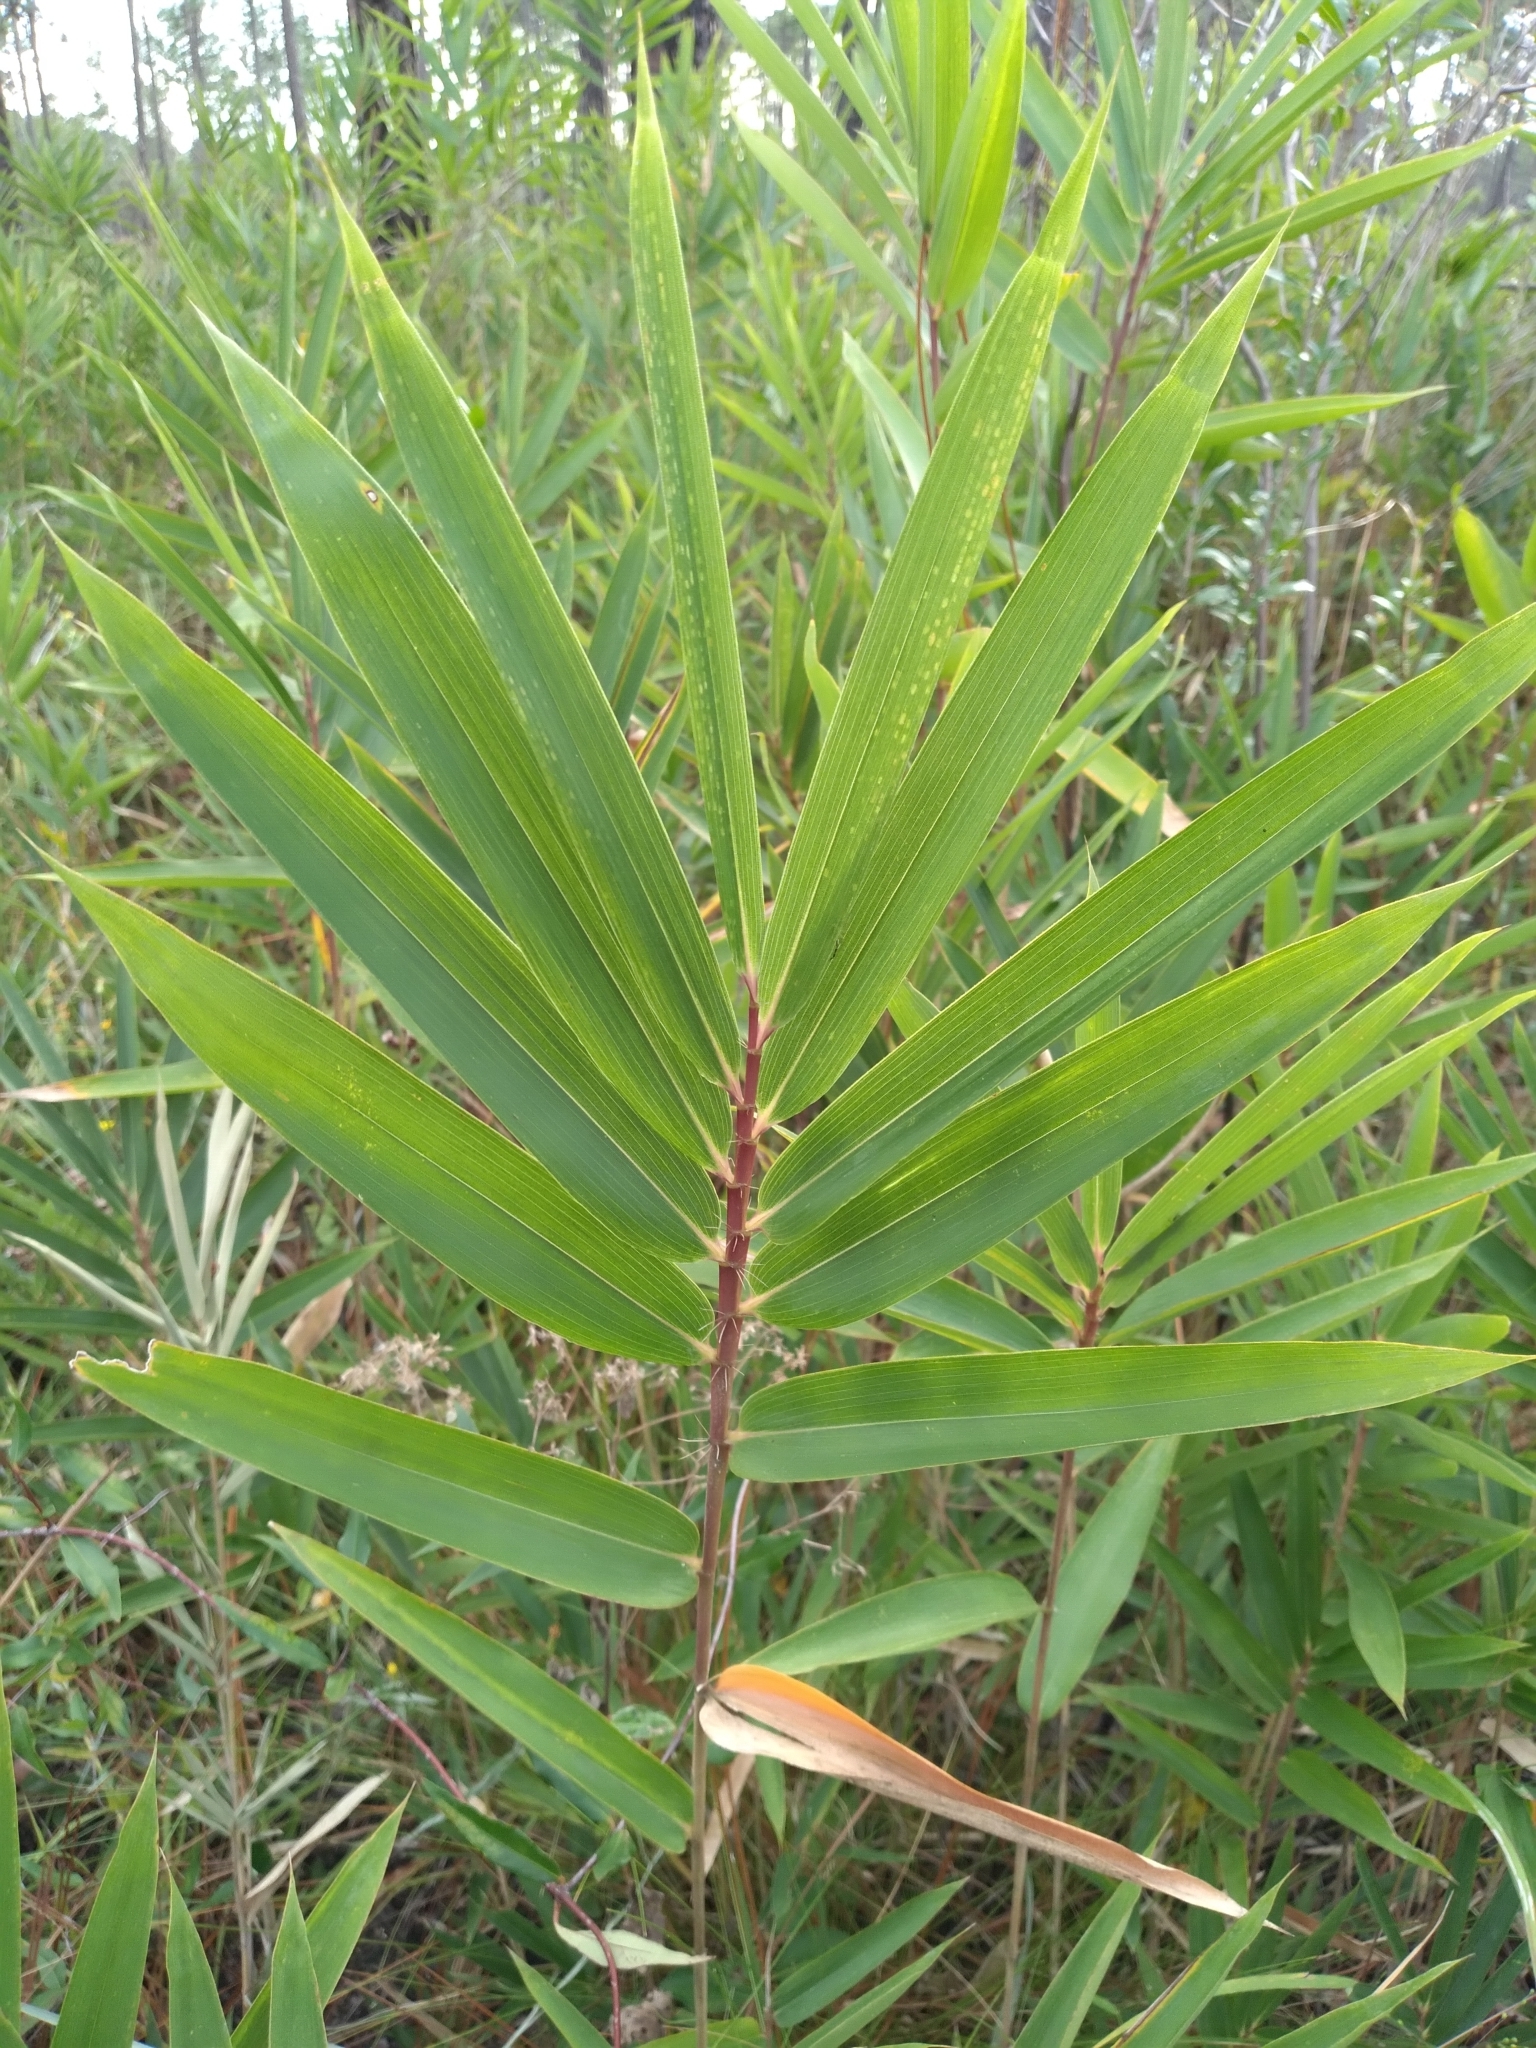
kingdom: Plantae
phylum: Tracheophyta
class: Liliopsida
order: Poales
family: Poaceae
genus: Arundinaria
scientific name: Arundinaria tecta
